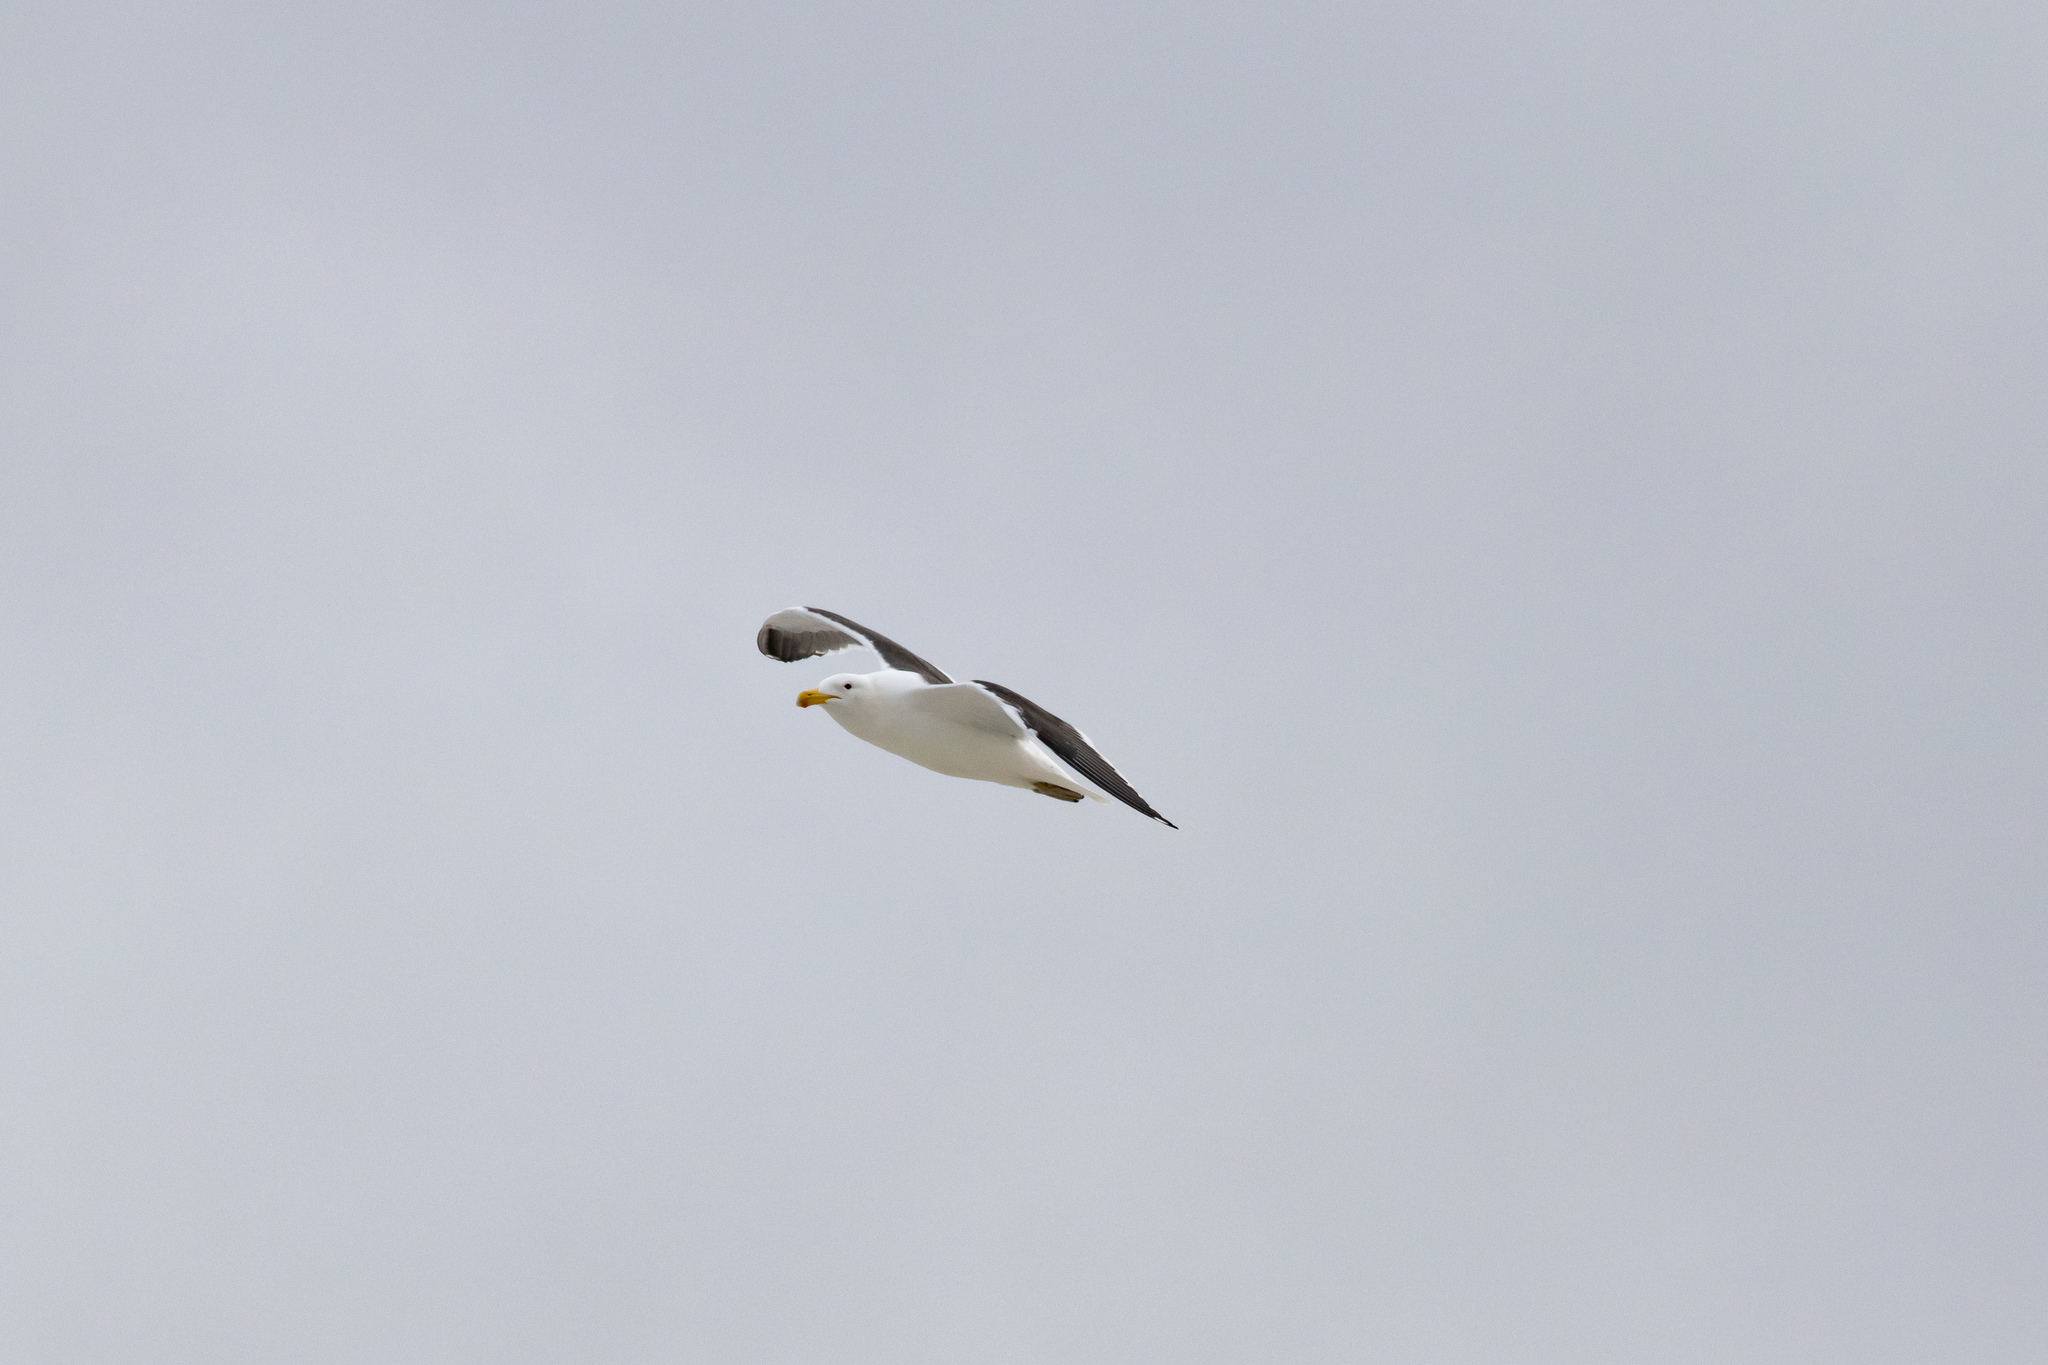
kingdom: Animalia
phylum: Chordata
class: Aves
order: Charadriiformes
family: Laridae
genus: Larus
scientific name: Larus dominicanus
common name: Kelp gull
